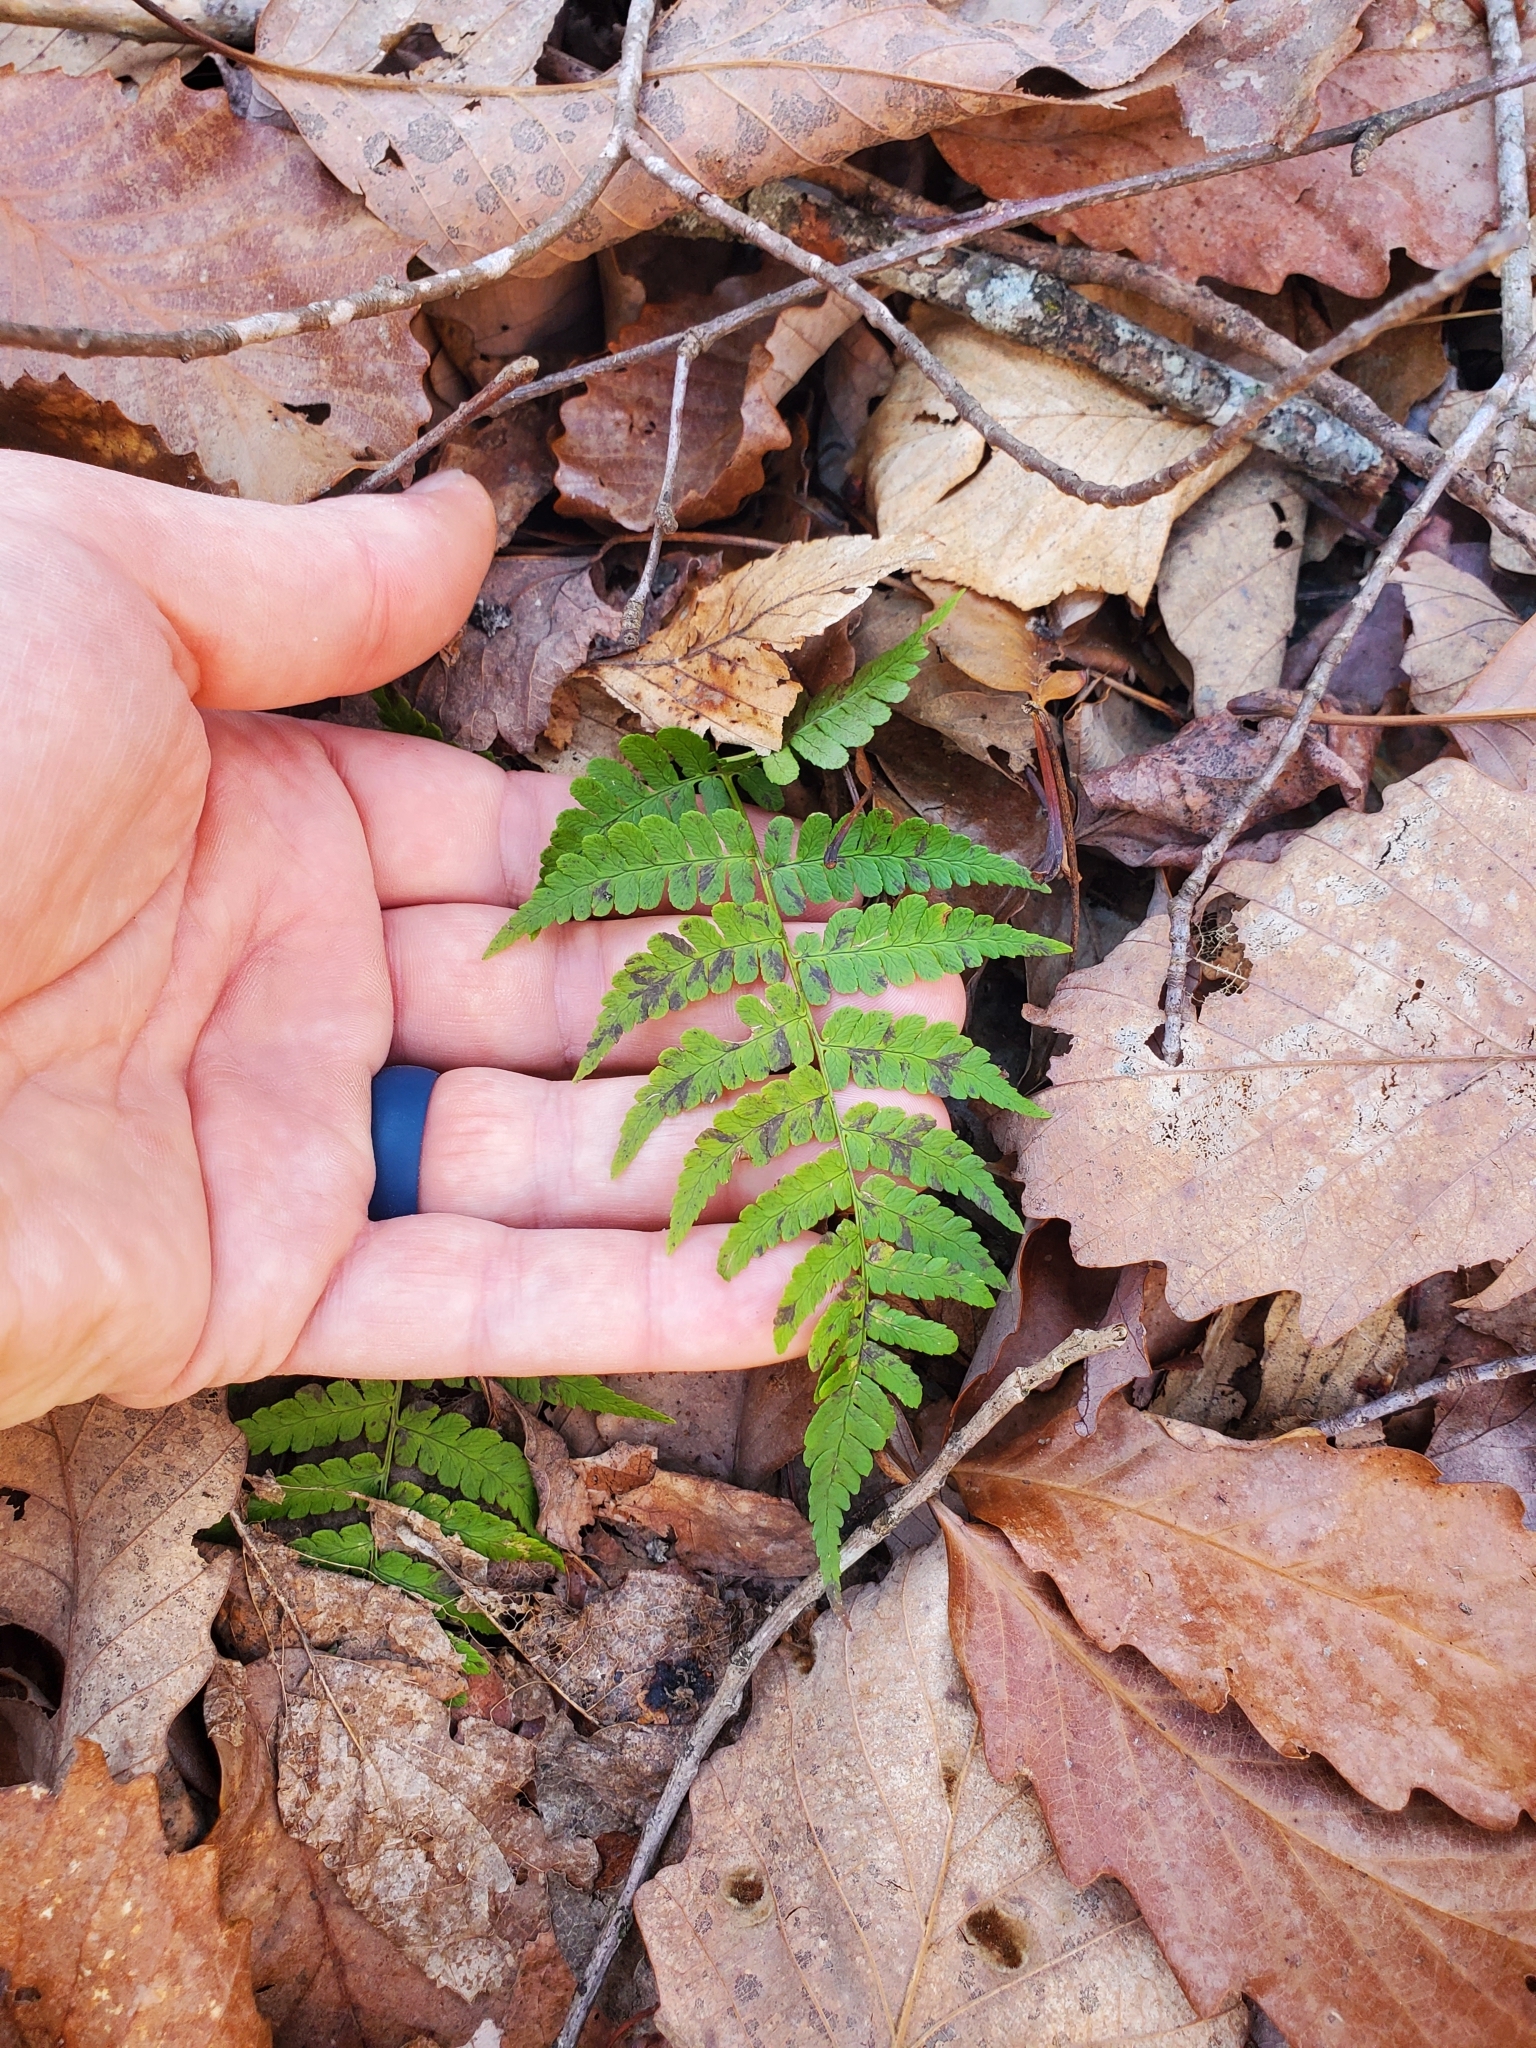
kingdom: Plantae
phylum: Tracheophyta
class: Polypodiopsida
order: Polypodiales
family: Dryopteridaceae
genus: Dryopteris
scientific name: Dryopteris marginalis
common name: Marginal wood fern
